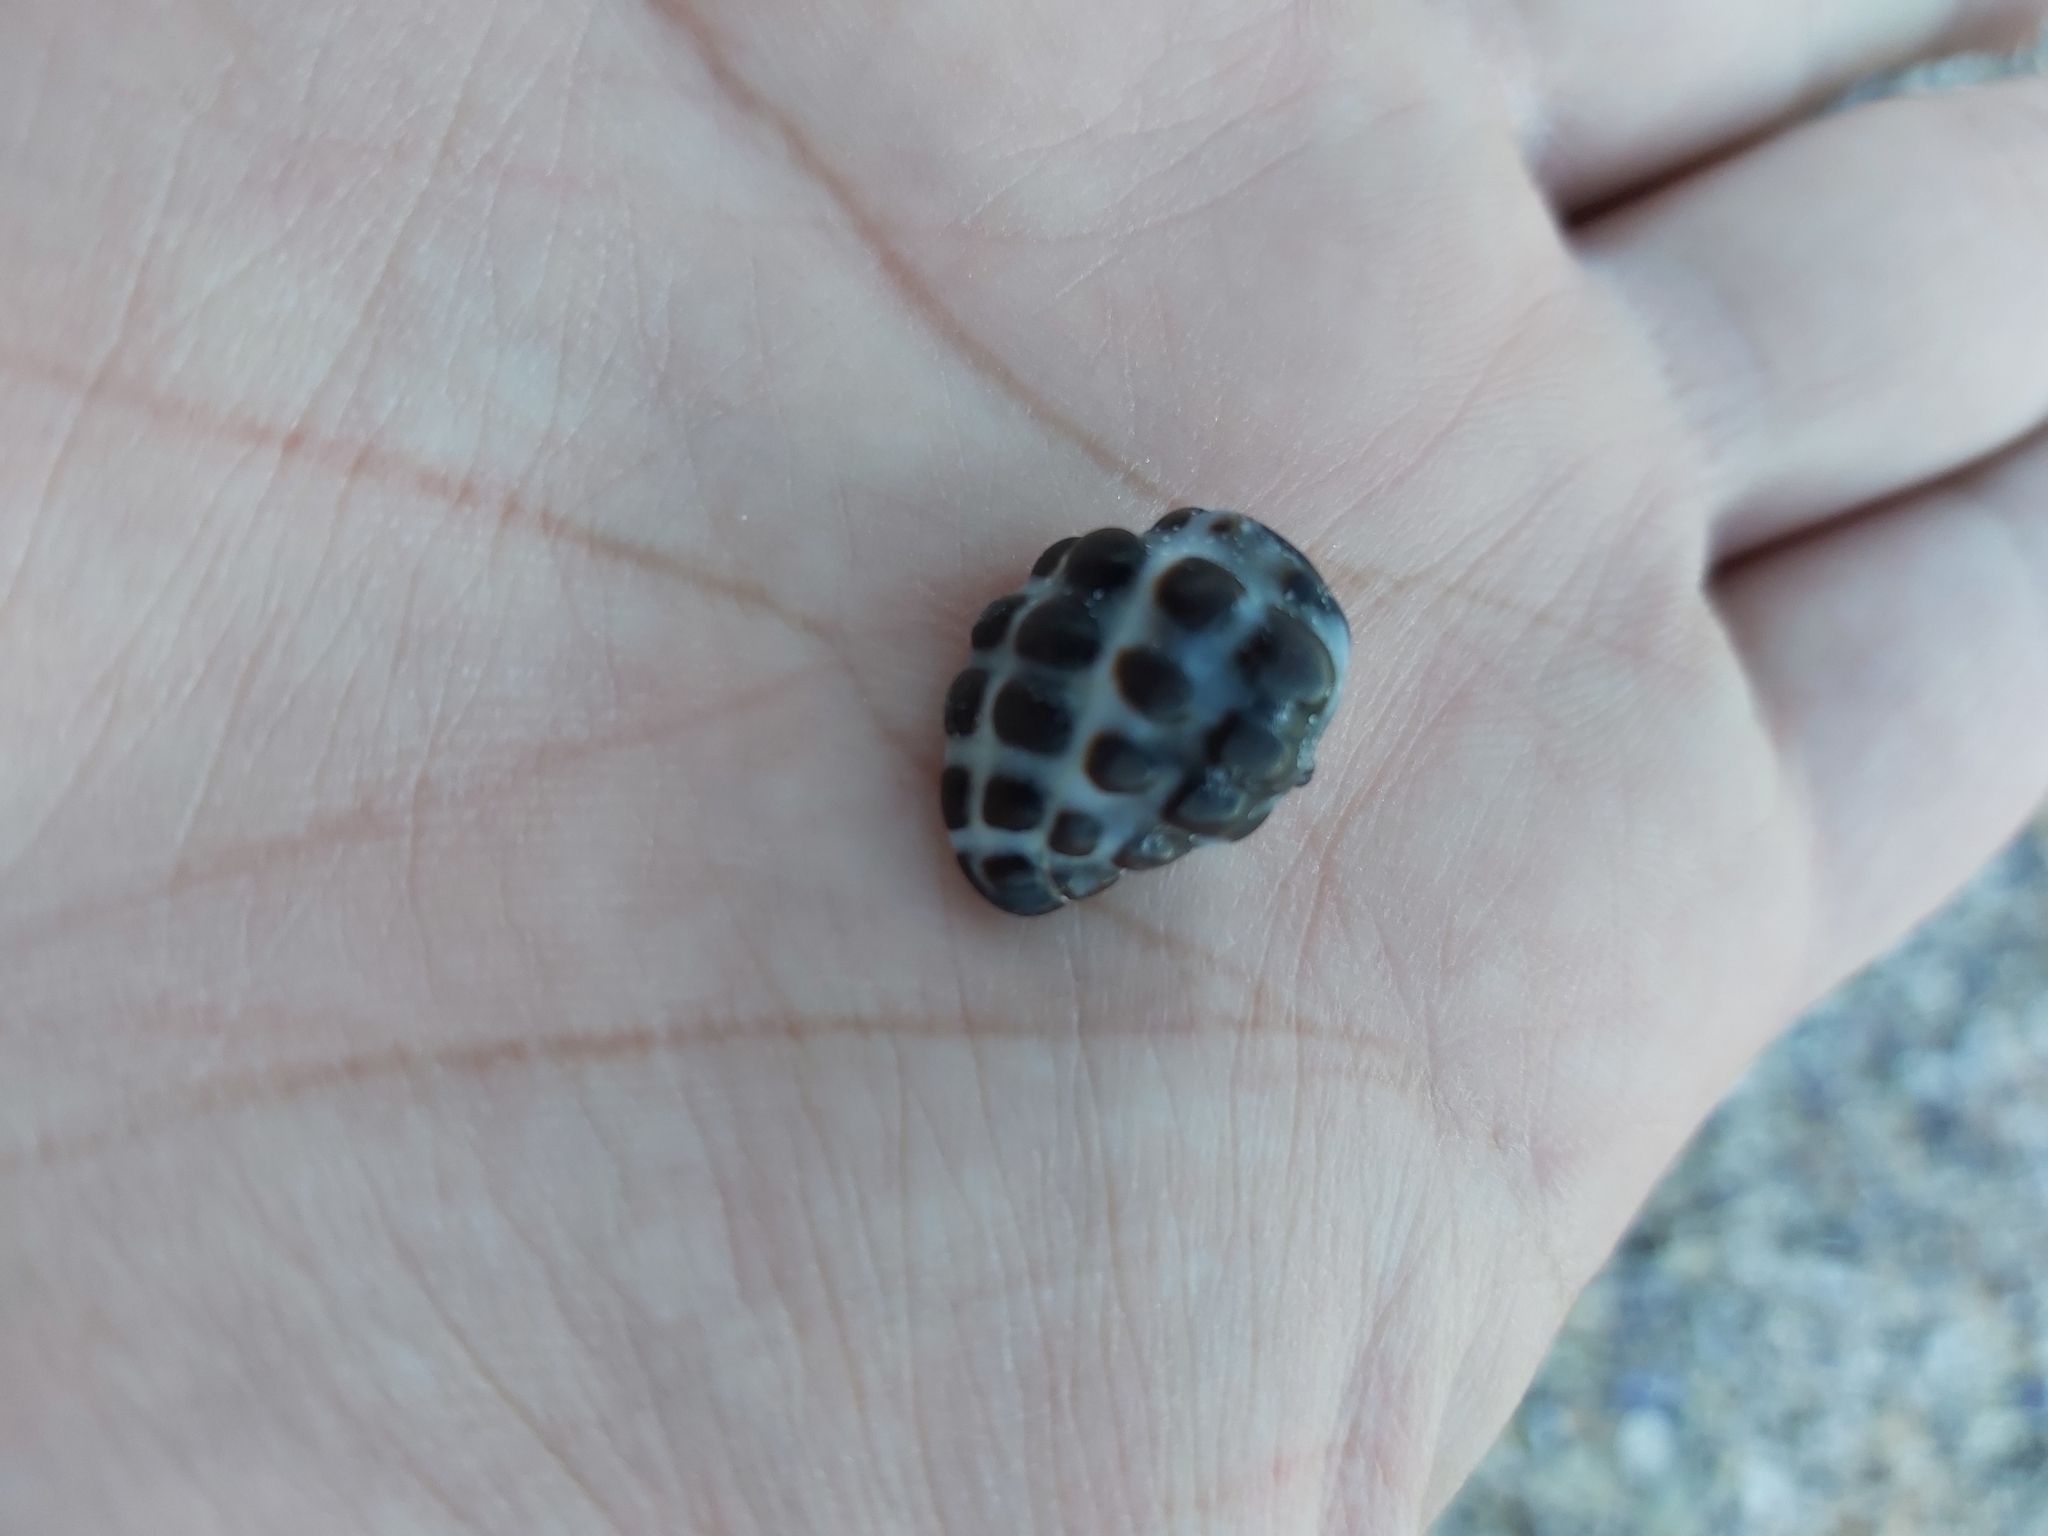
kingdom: Animalia
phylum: Mollusca
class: Gastropoda
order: Neogastropoda
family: Muricidae
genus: Tenguella
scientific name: Tenguella marginalba
